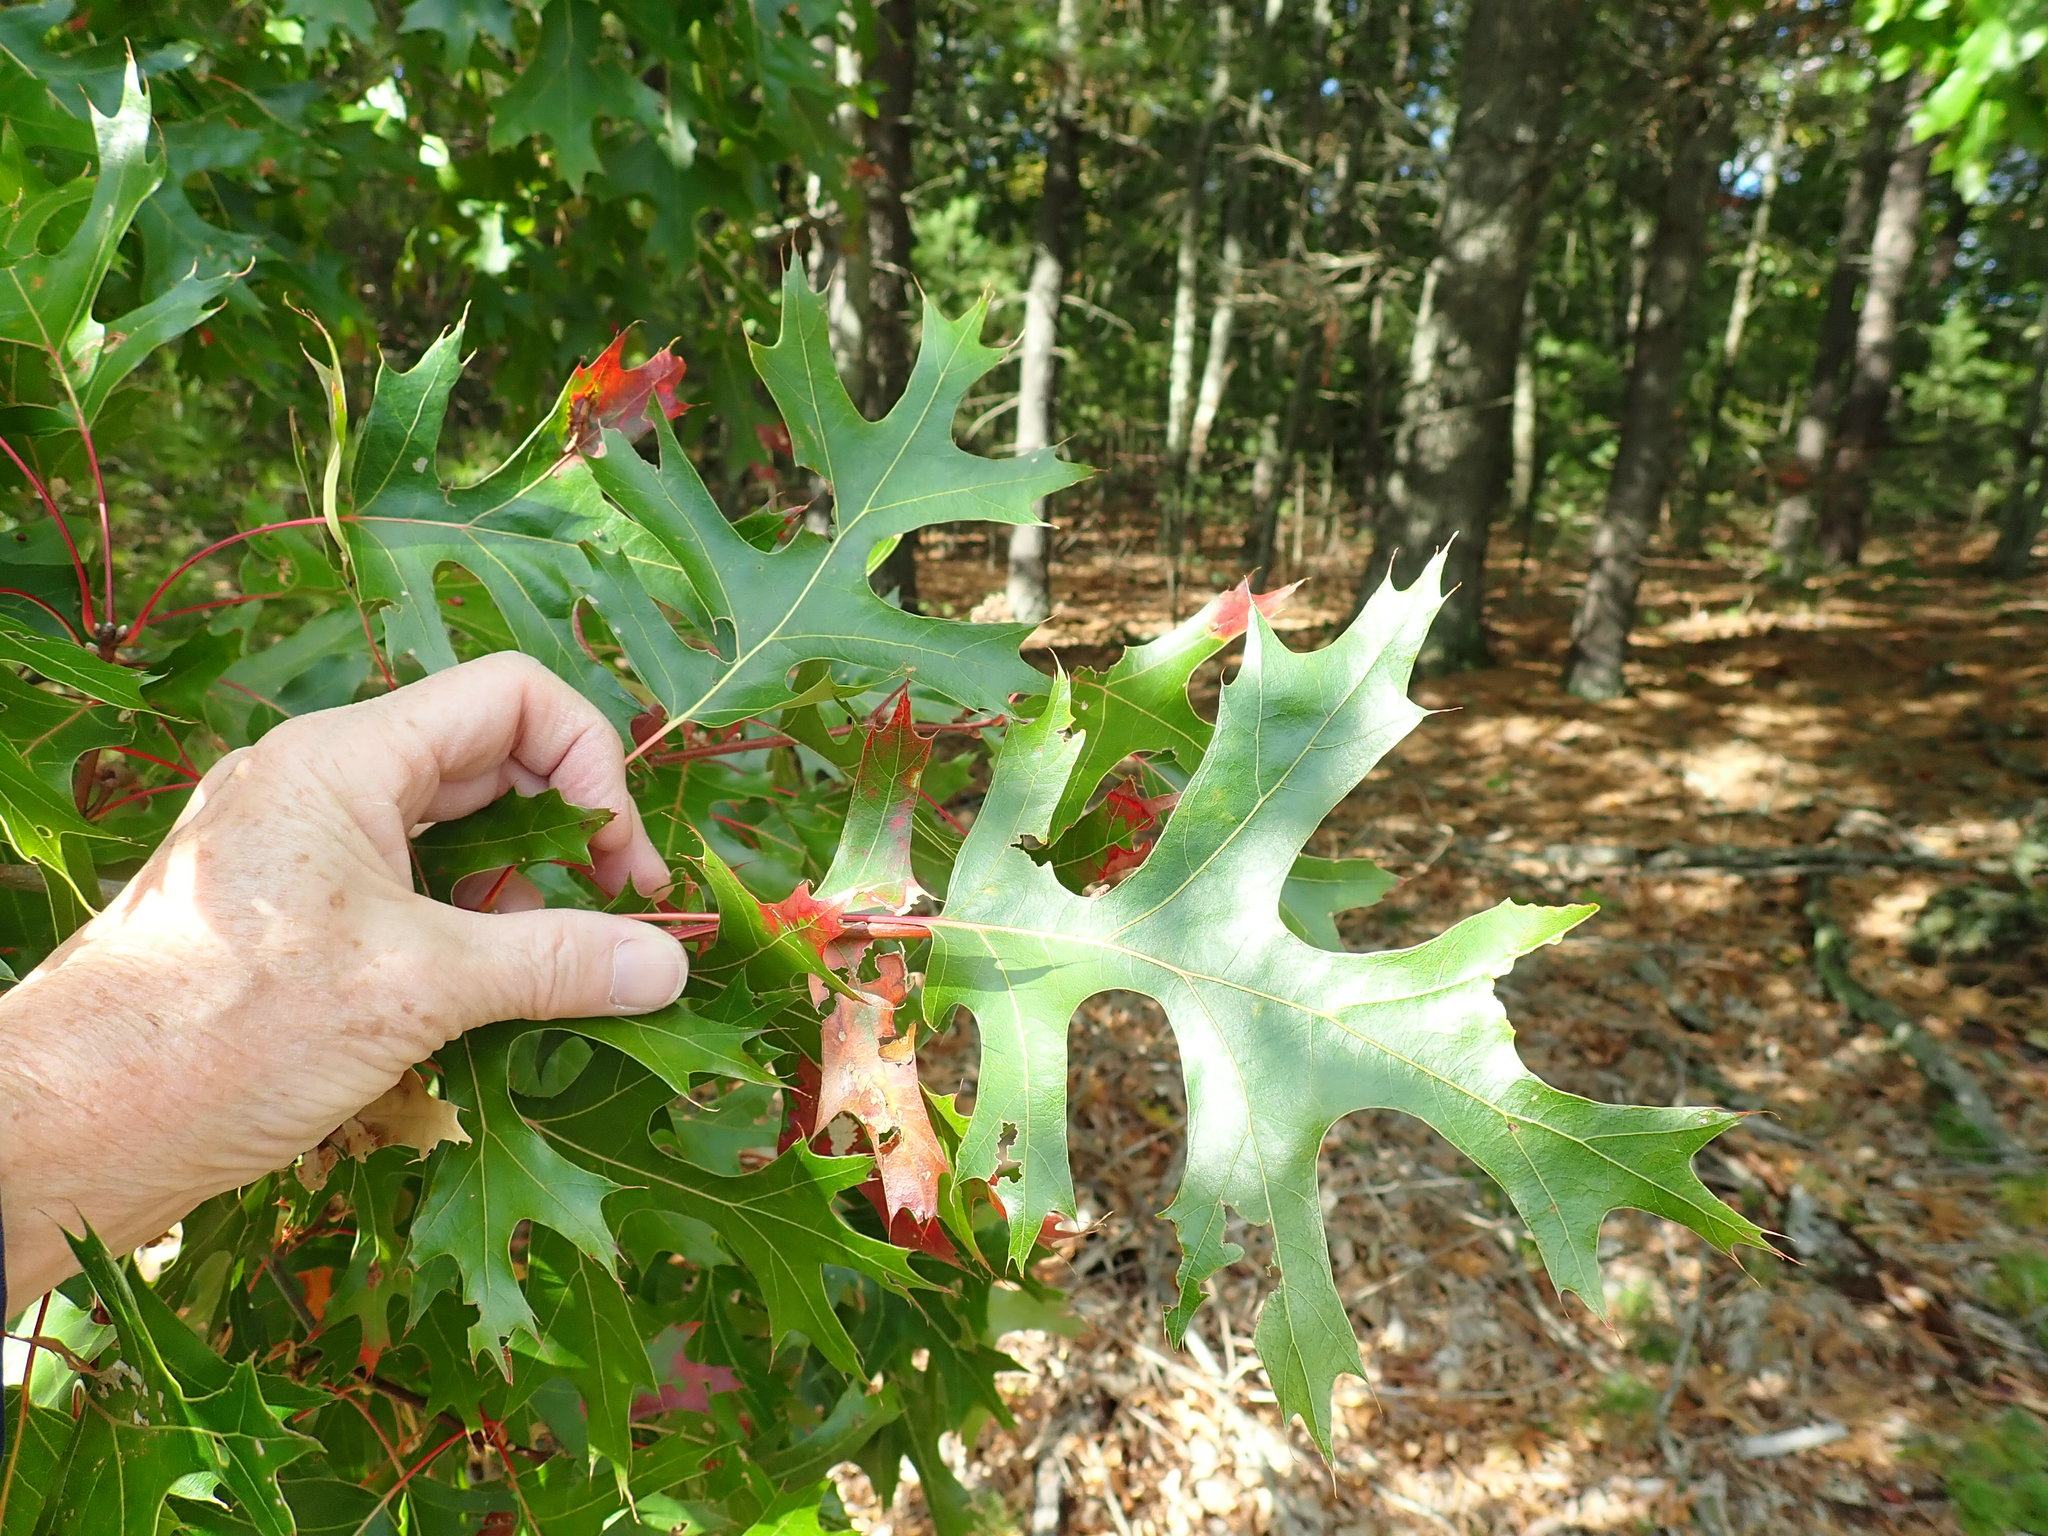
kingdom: Plantae
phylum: Tracheophyta
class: Magnoliopsida
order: Fagales
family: Fagaceae
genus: Quercus
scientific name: Quercus coccinea
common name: Scarlet oak
